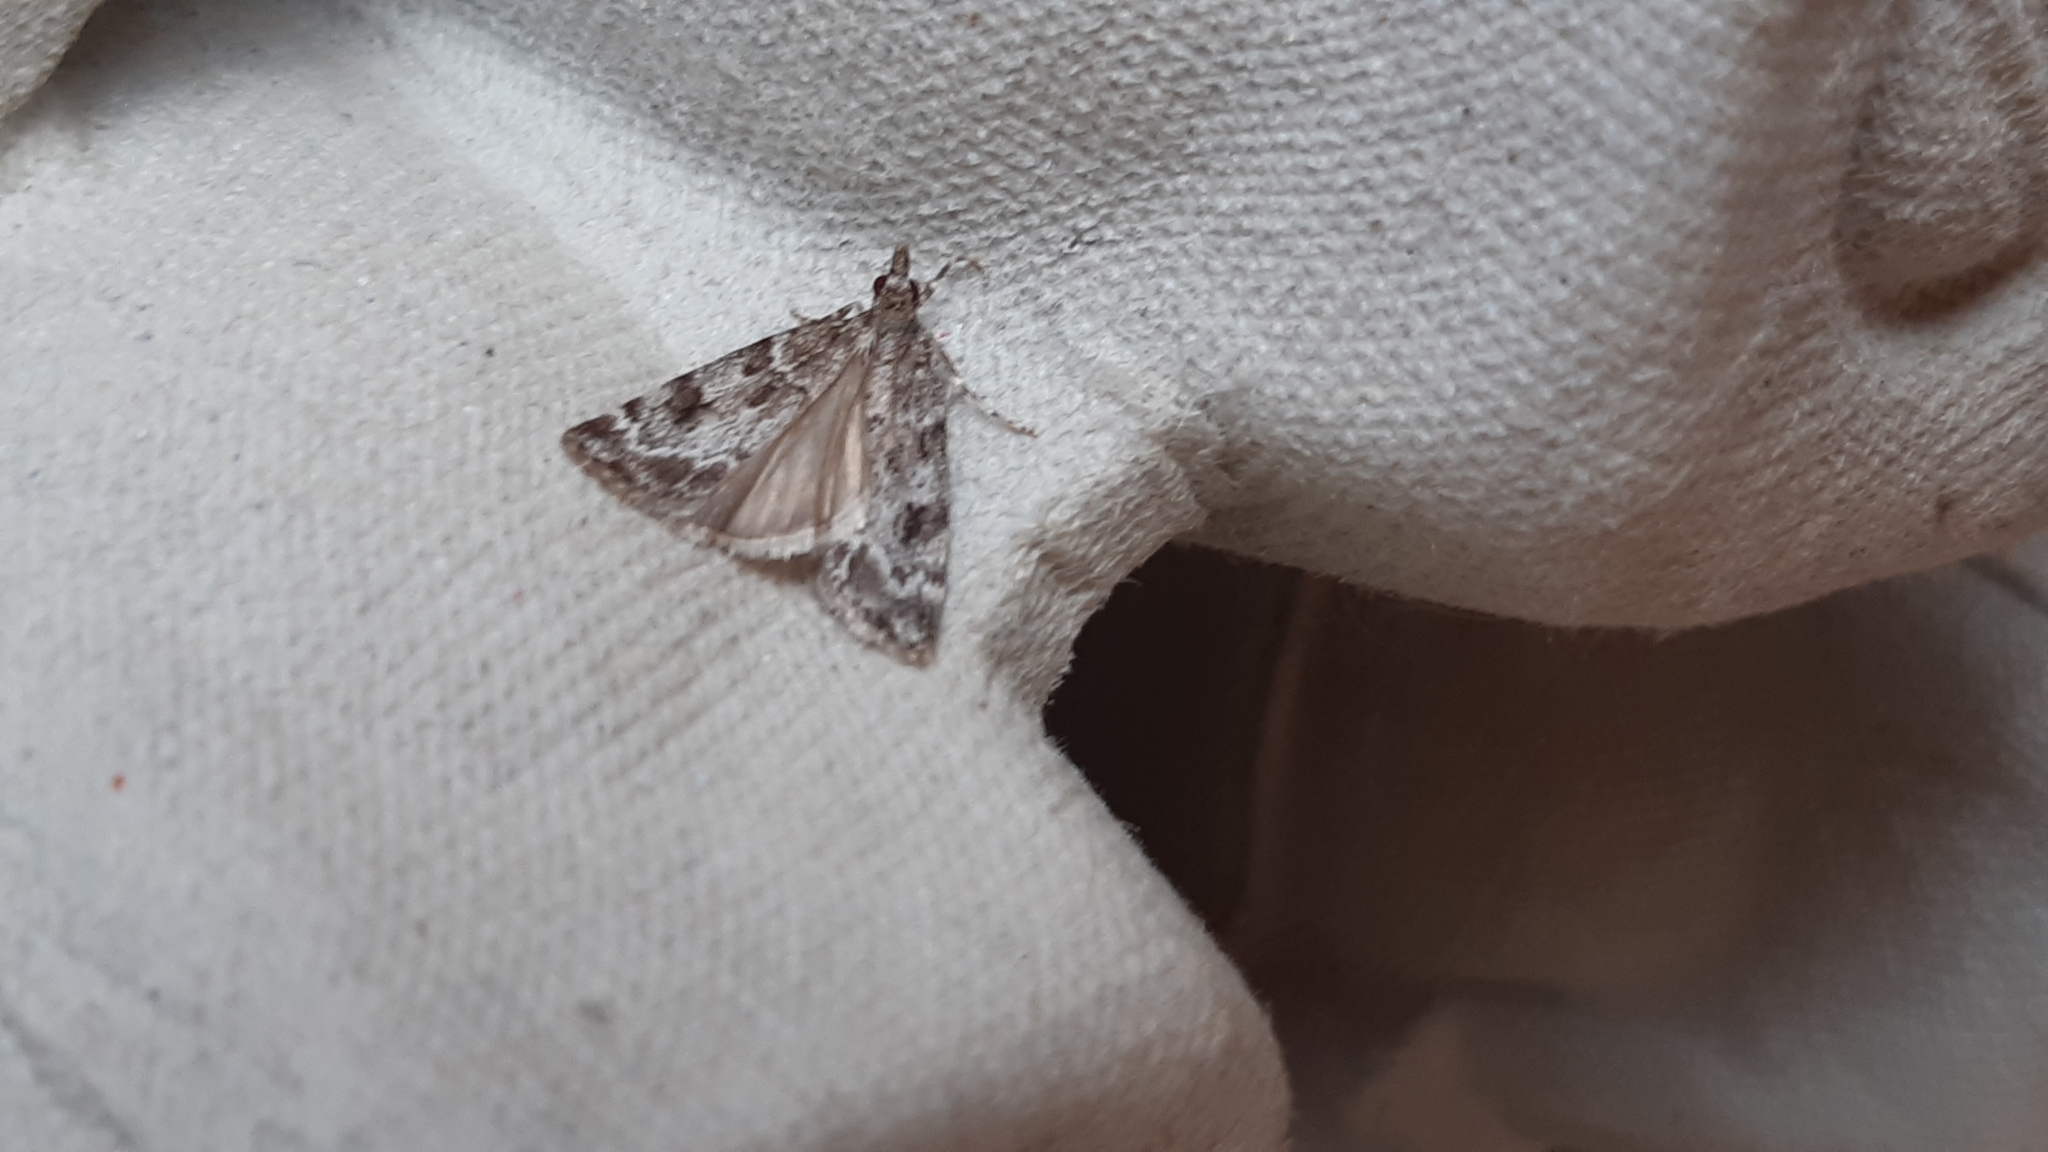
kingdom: Animalia
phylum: Arthropoda
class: Insecta
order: Lepidoptera
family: Crambidae
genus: Eudonia
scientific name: Eudonia mercurella
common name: Small grey
